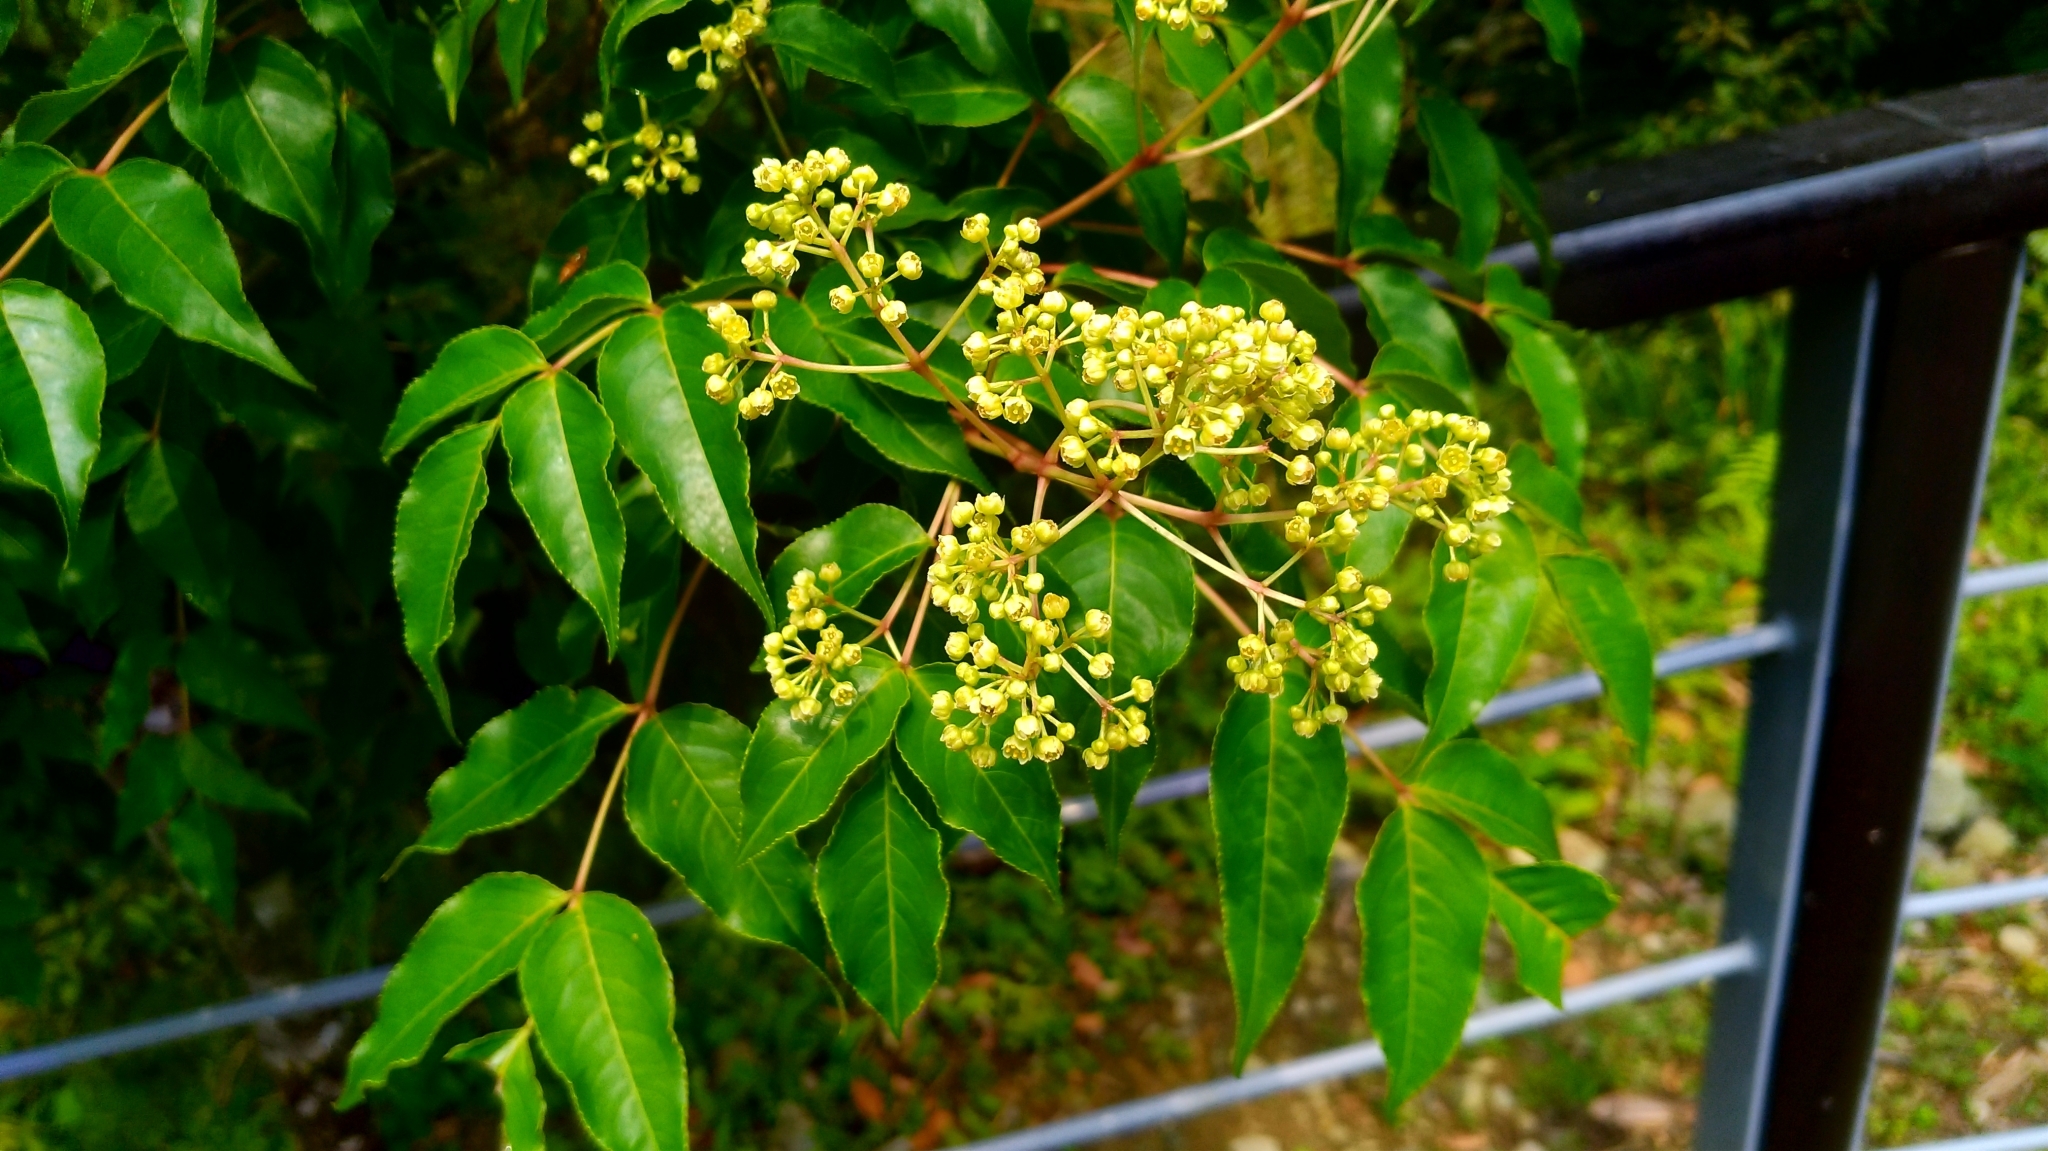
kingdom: Plantae
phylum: Tracheophyta
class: Magnoliopsida
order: Crossosomatales
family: Staphyleaceae
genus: Staphylea
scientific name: Staphylea japonica
